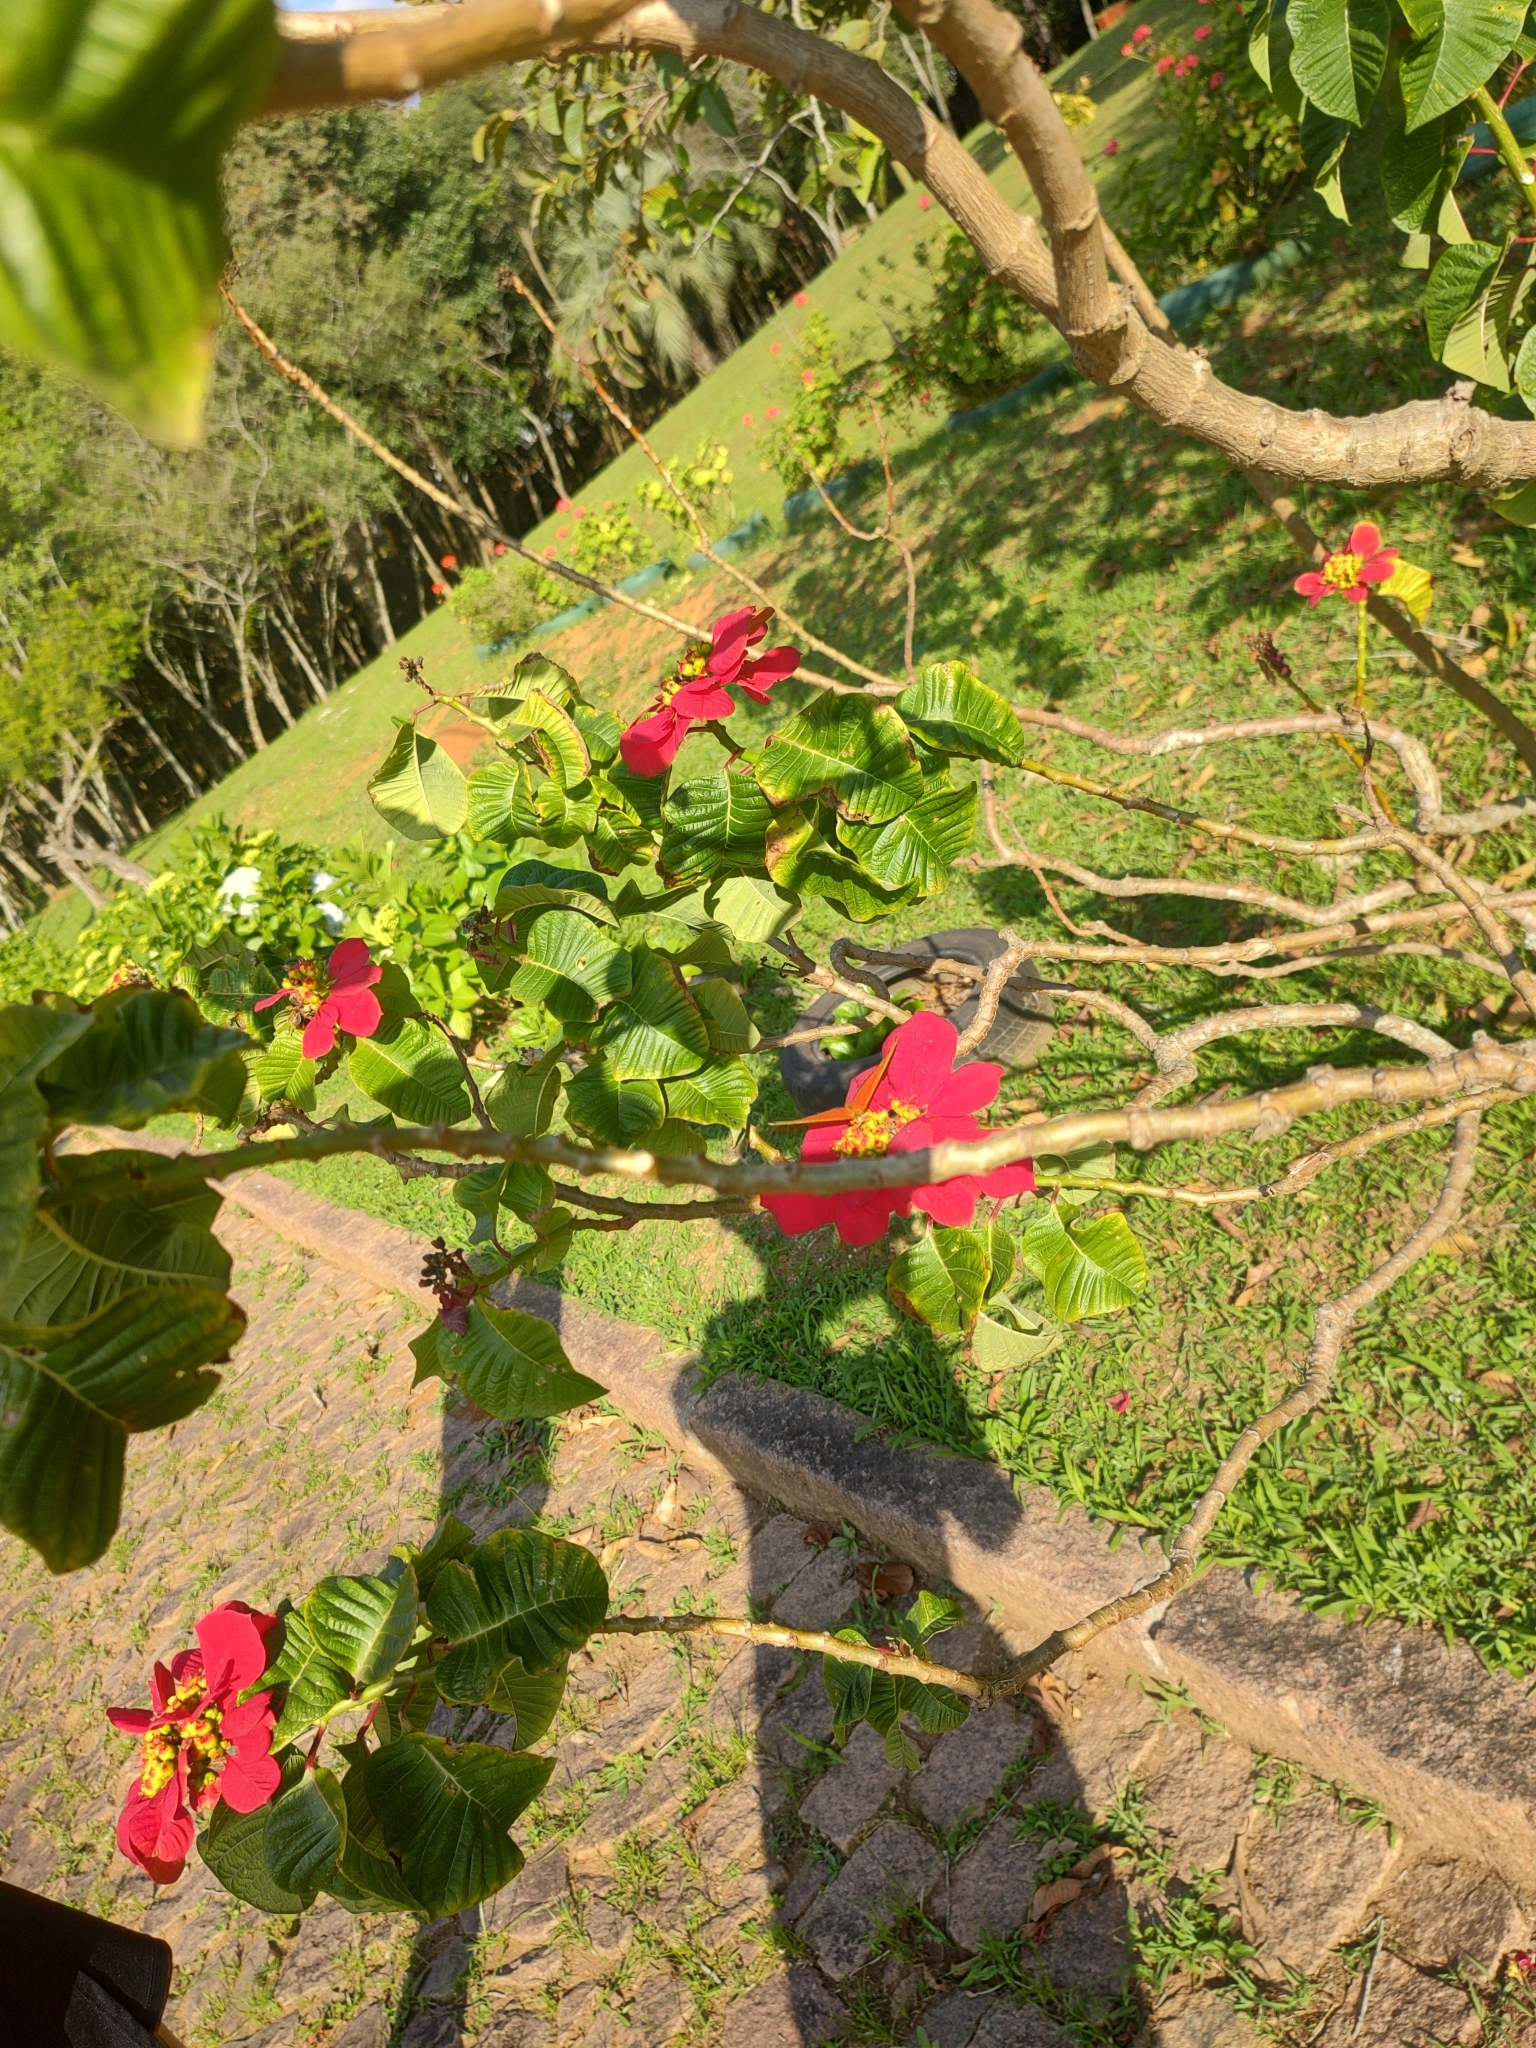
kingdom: Animalia
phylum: Arthropoda
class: Insecta
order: Lepidoptera
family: Nymphalidae
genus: Dryas
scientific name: Dryas iulia
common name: Flambeau
